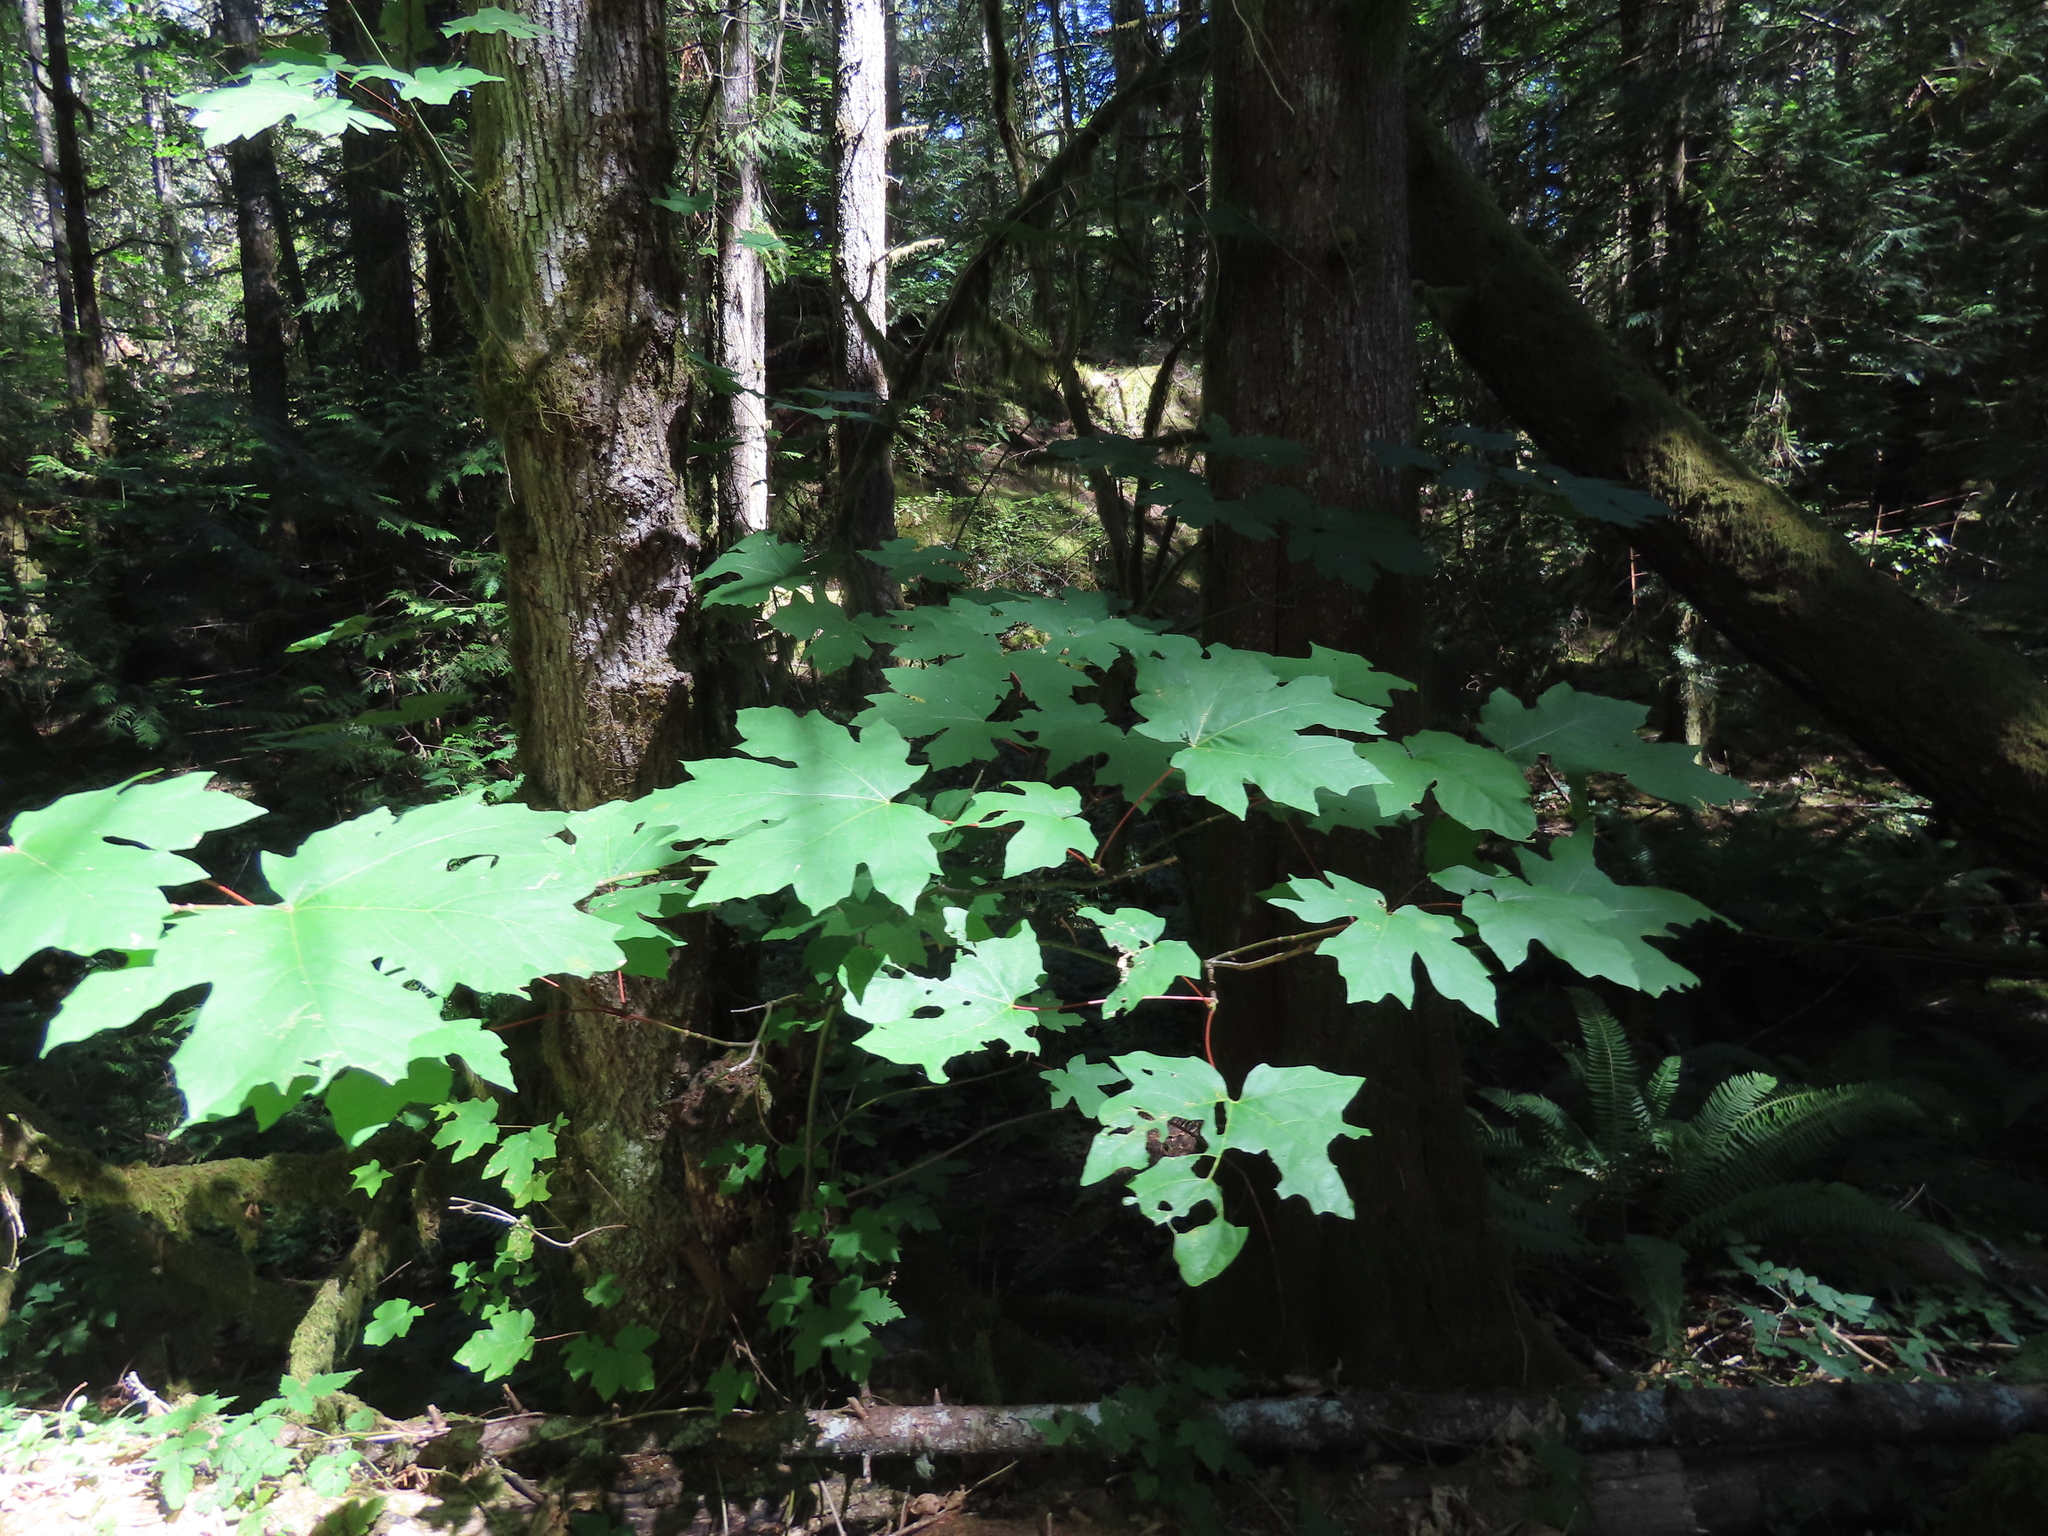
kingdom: Plantae
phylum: Tracheophyta
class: Magnoliopsida
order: Sapindales
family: Sapindaceae
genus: Acer
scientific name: Acer macrophyllum
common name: Oregon maple
